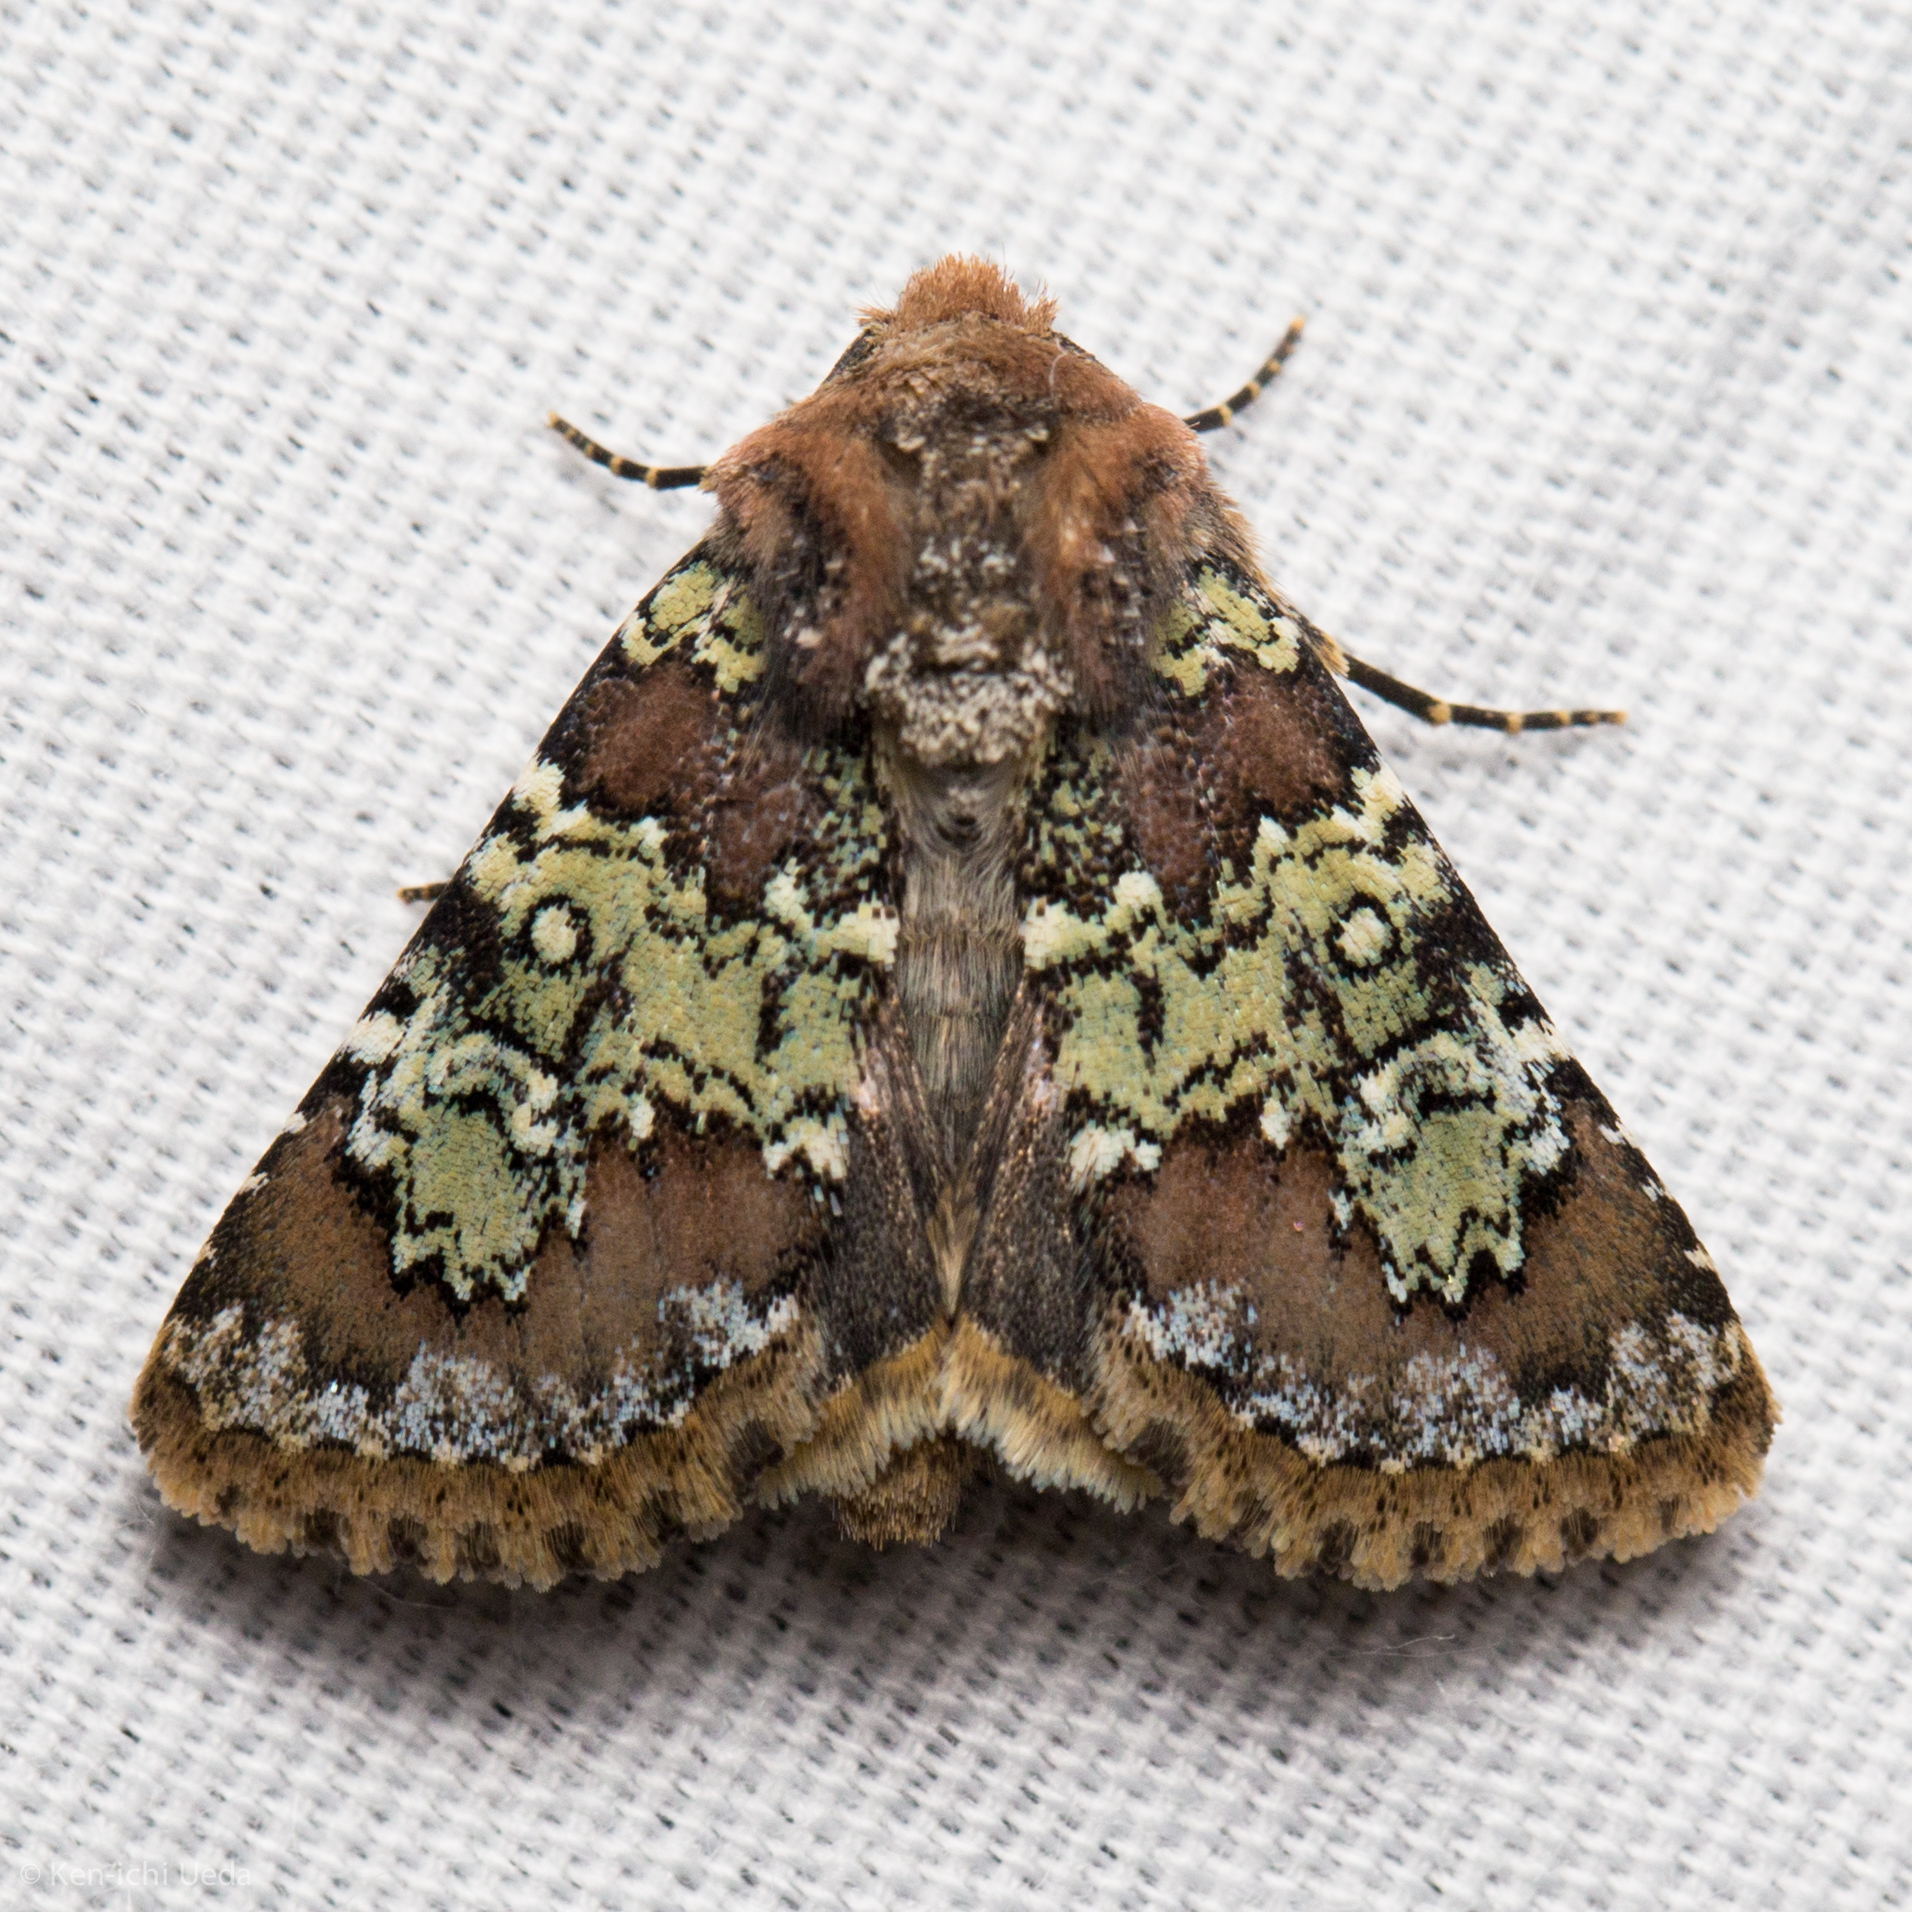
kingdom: Animalia
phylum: Arthropoda
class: Insecta
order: Lepidoptera
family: Noctuidae
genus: Hemibryomima
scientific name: Hemibryomima chryselectra
